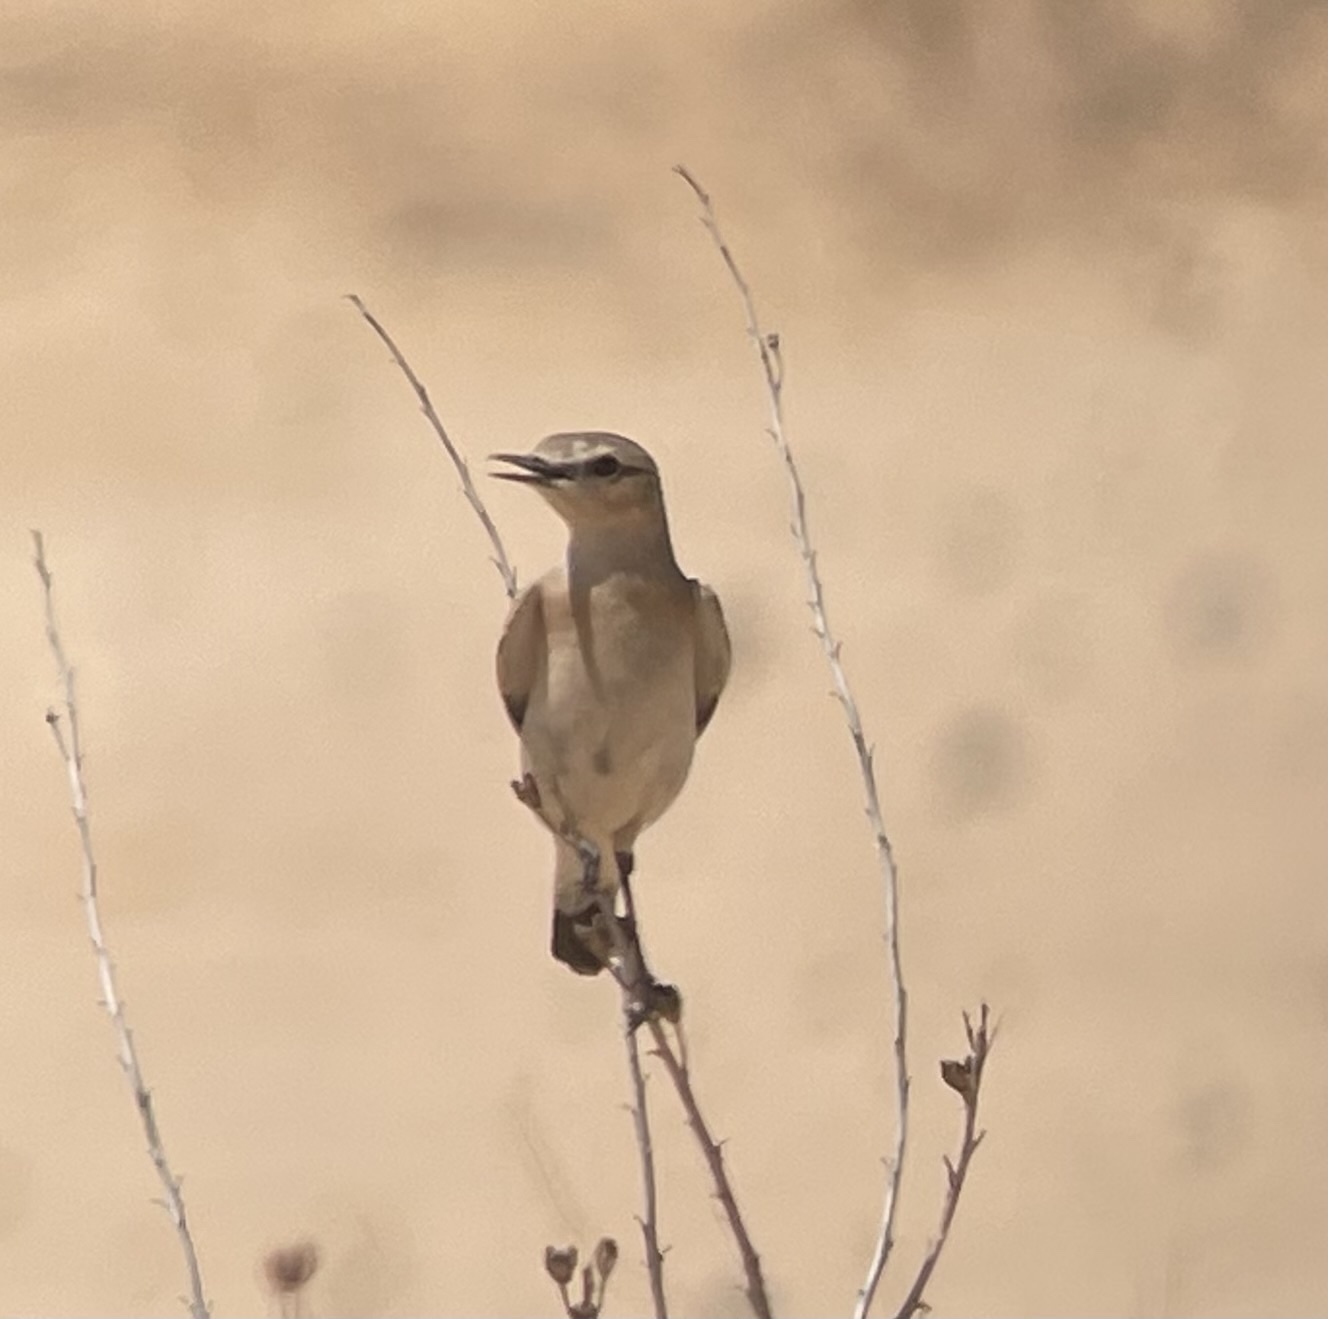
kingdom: Animalia
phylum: Chordata
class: Aves
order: Passeriformes
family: Muscicapidae
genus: Oenanthe
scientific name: Oenanthe isabellina
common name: Isabelline wheatear
